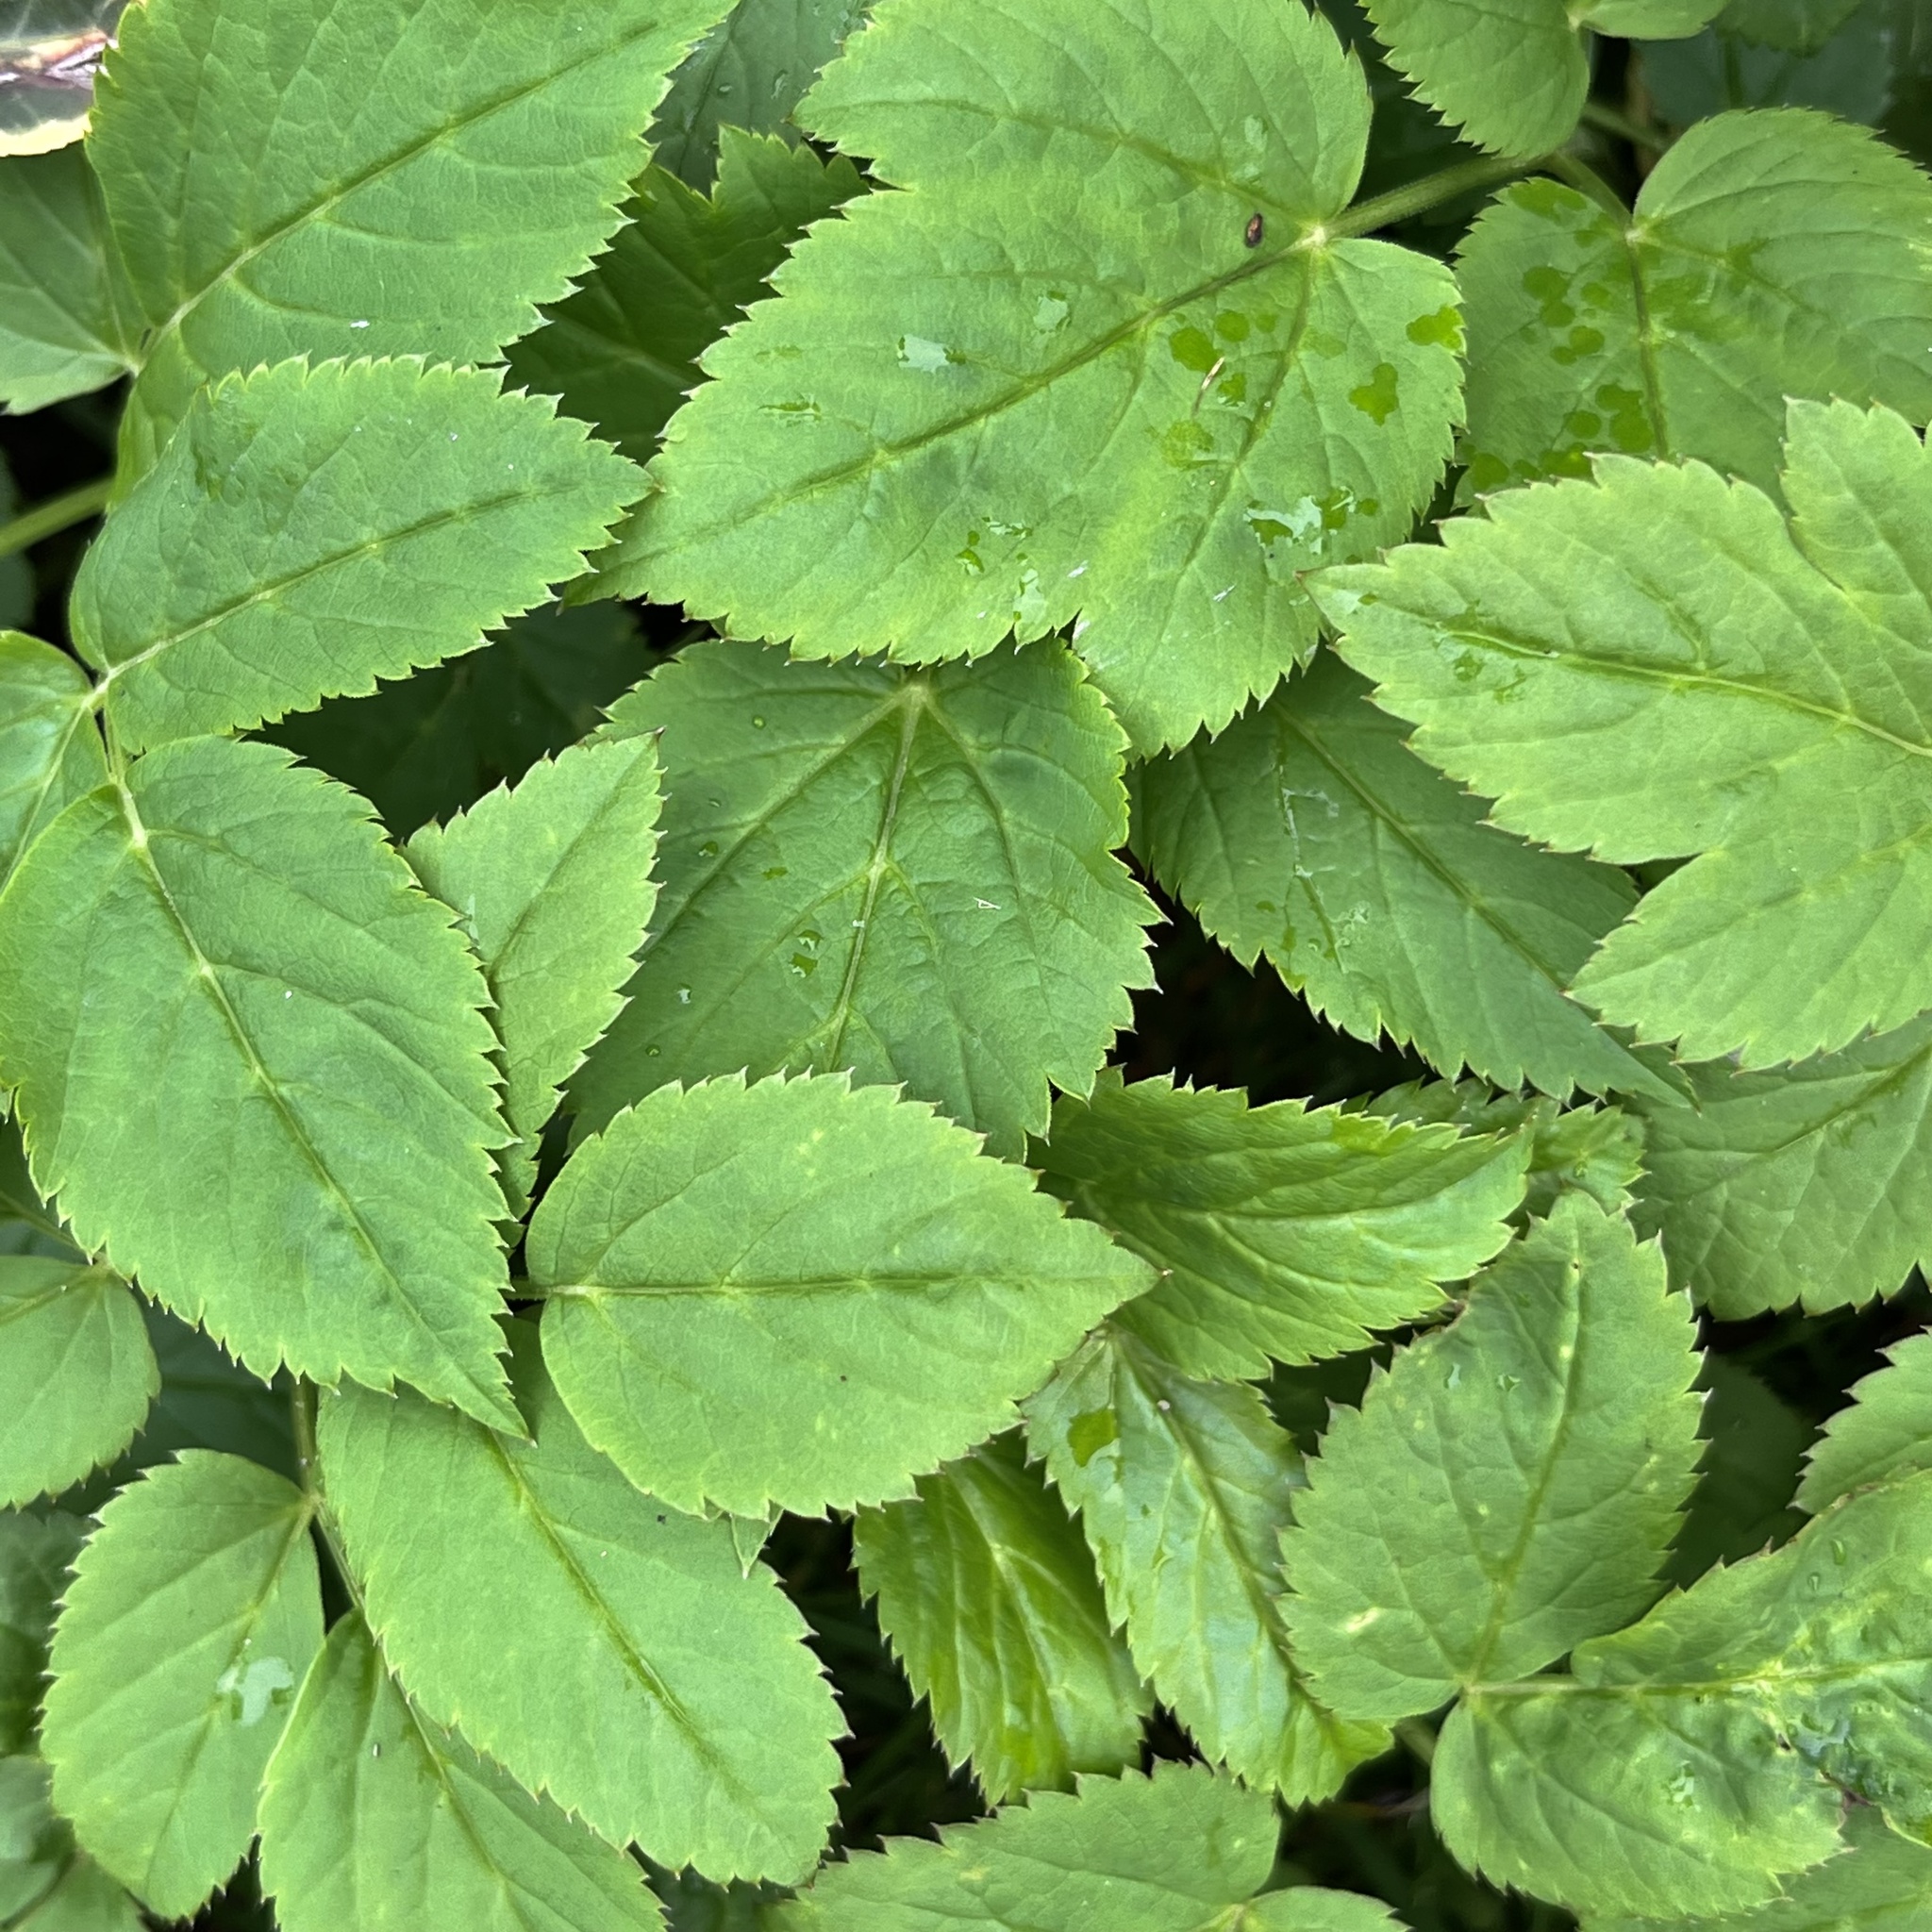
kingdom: Plantae
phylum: Tracheophyta
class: Magnoliopsida
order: Apiales
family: Apiaceae
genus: Aegopodium
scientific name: Aegopodium podagraria
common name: Ground-elder
